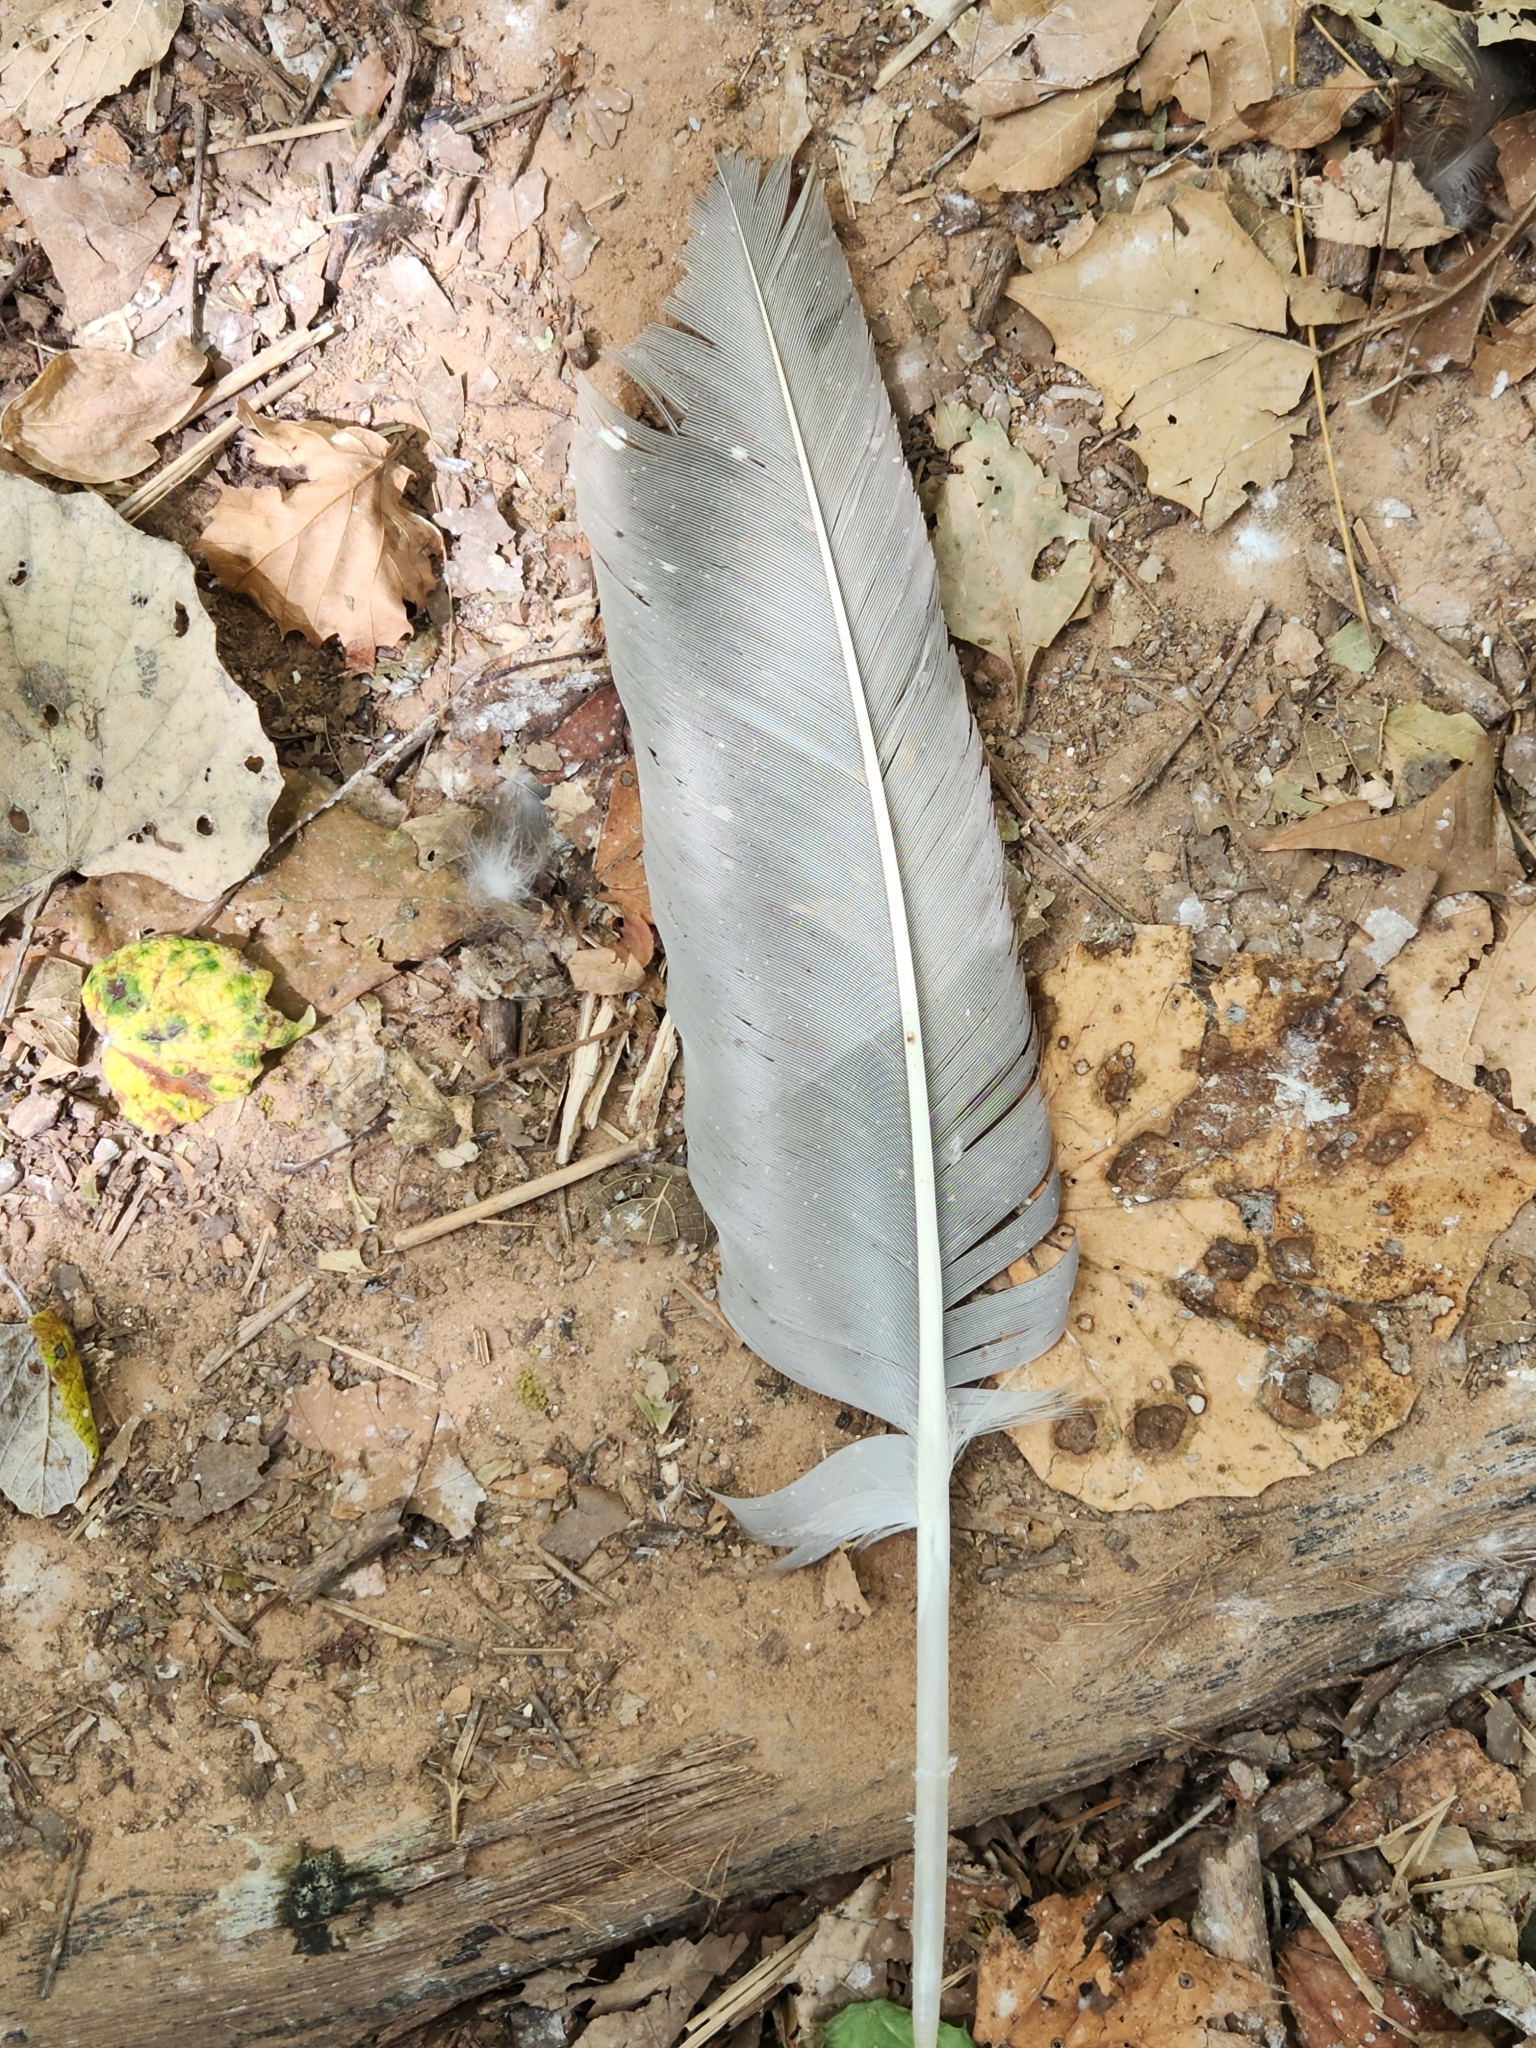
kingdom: Animalia
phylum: Chordata
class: Aves
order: Accipitriformes
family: Cathartidae
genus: Cathartes
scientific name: Cathartes aura
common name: Turkey vulture
